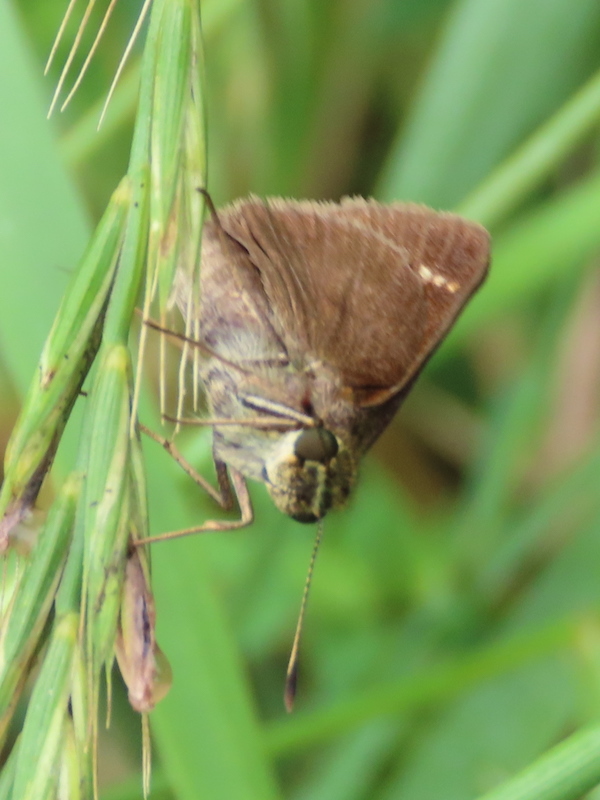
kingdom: Animalia
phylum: Arthropoda
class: Insecta
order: Lepidoptera
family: Hesperiidae
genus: Vernia
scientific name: Vernia verna
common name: Little glassywing
